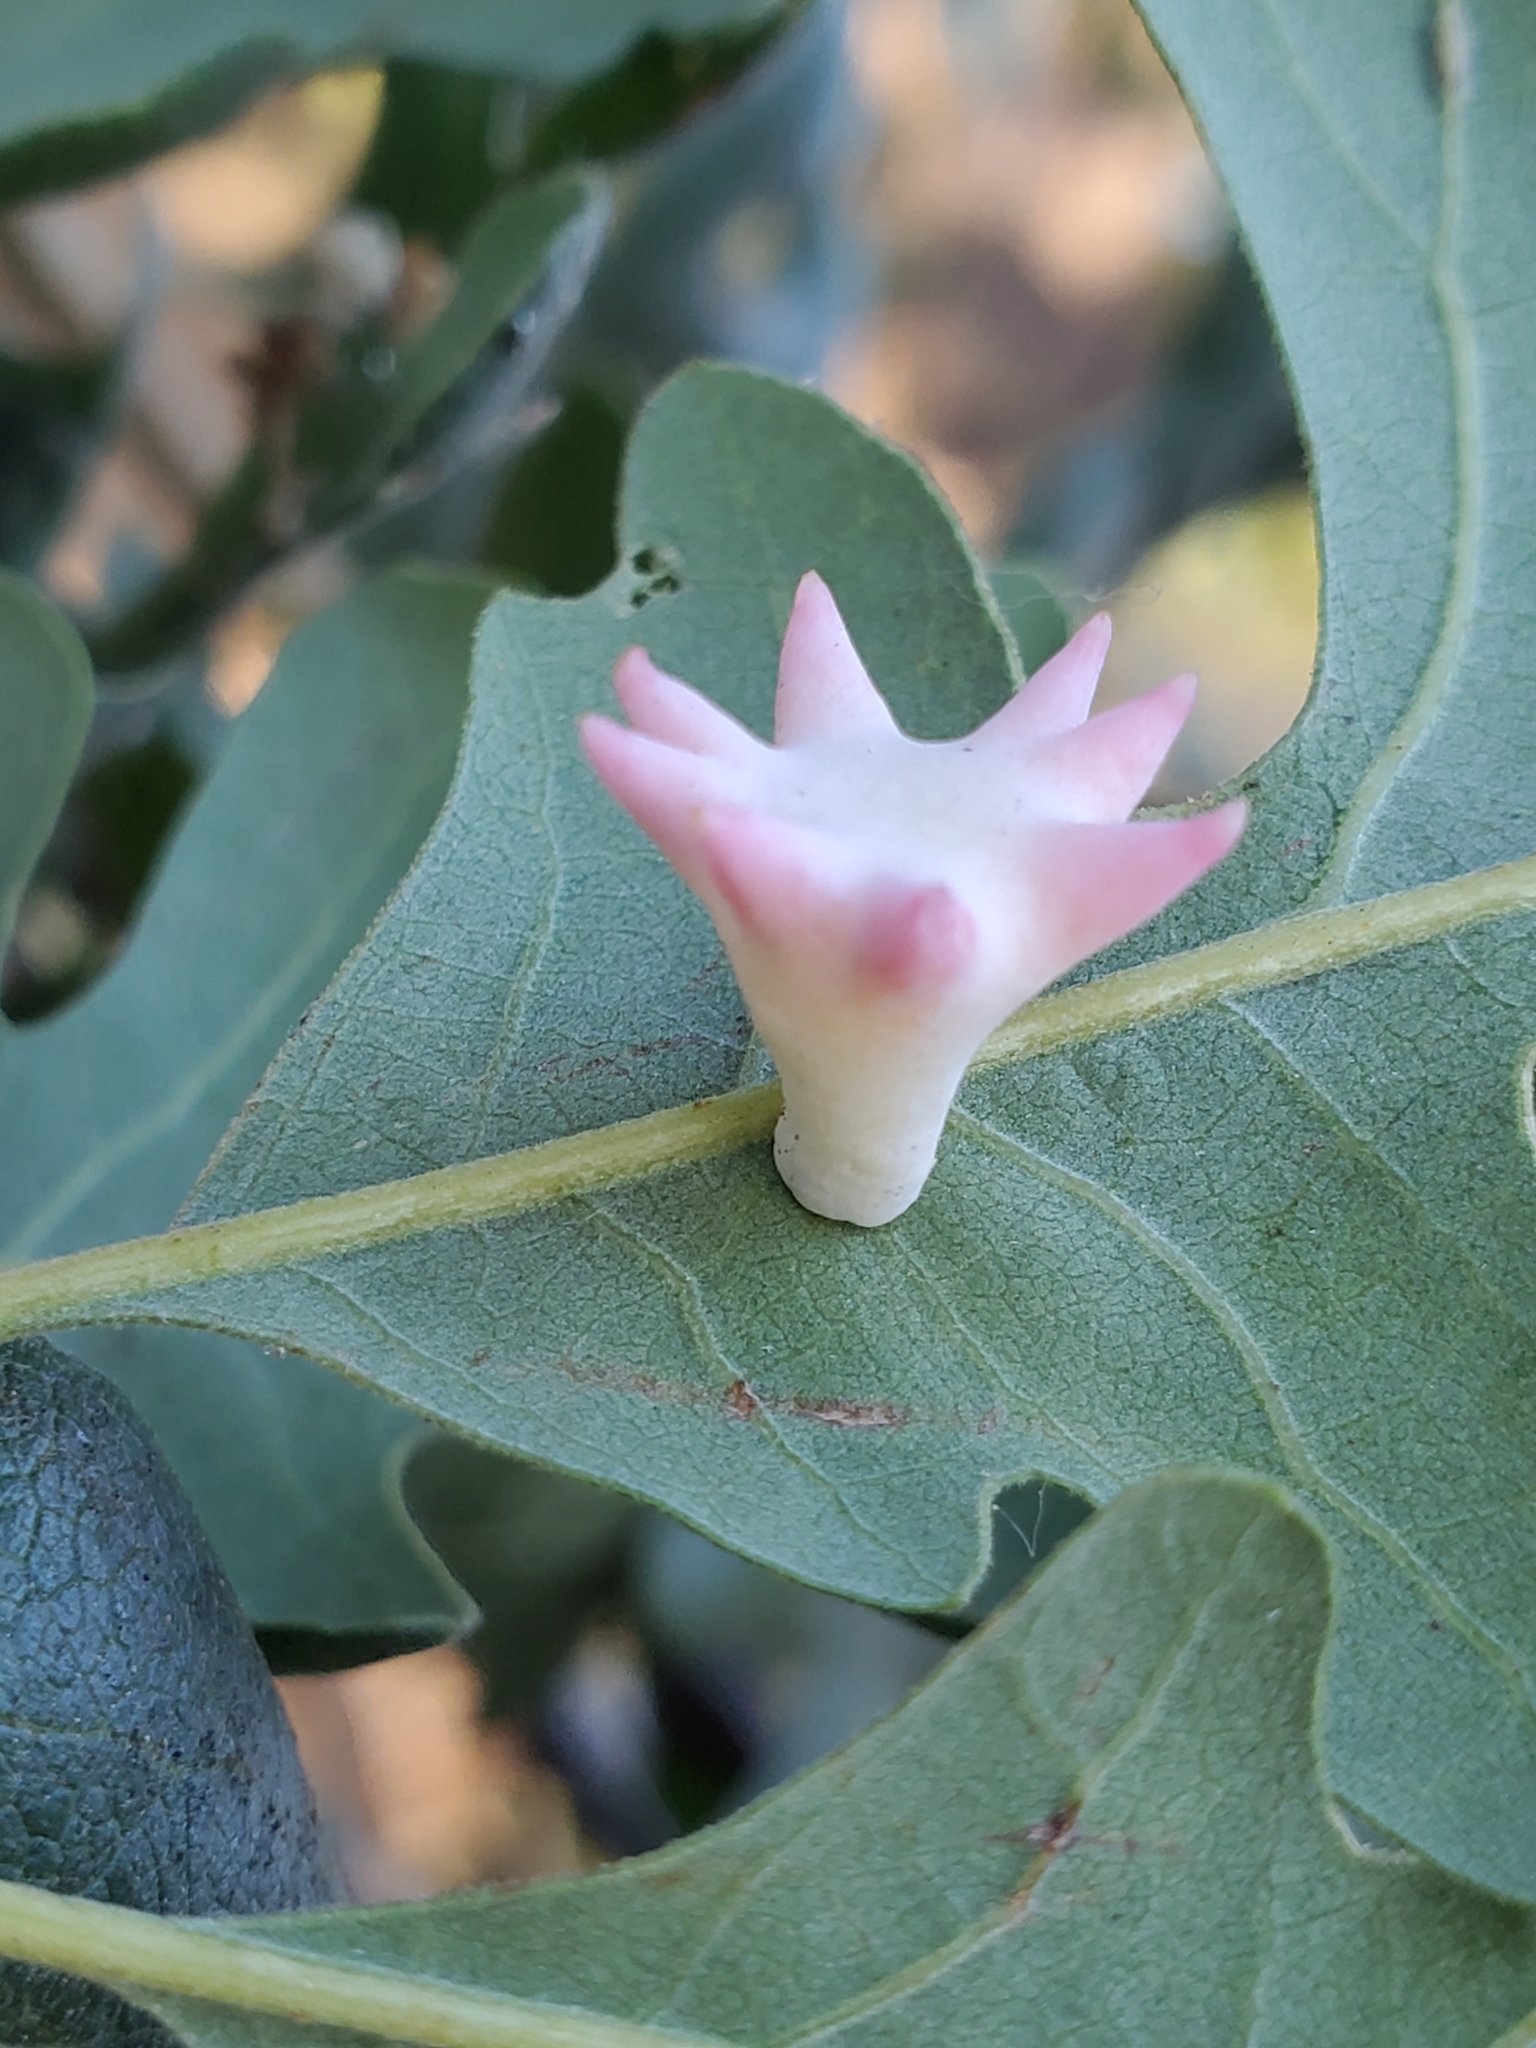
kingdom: Animalia
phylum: Arthropoda
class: Insecta
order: Hymenoptera
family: Cynipidae
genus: Cynips
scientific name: Cynips douglasi
